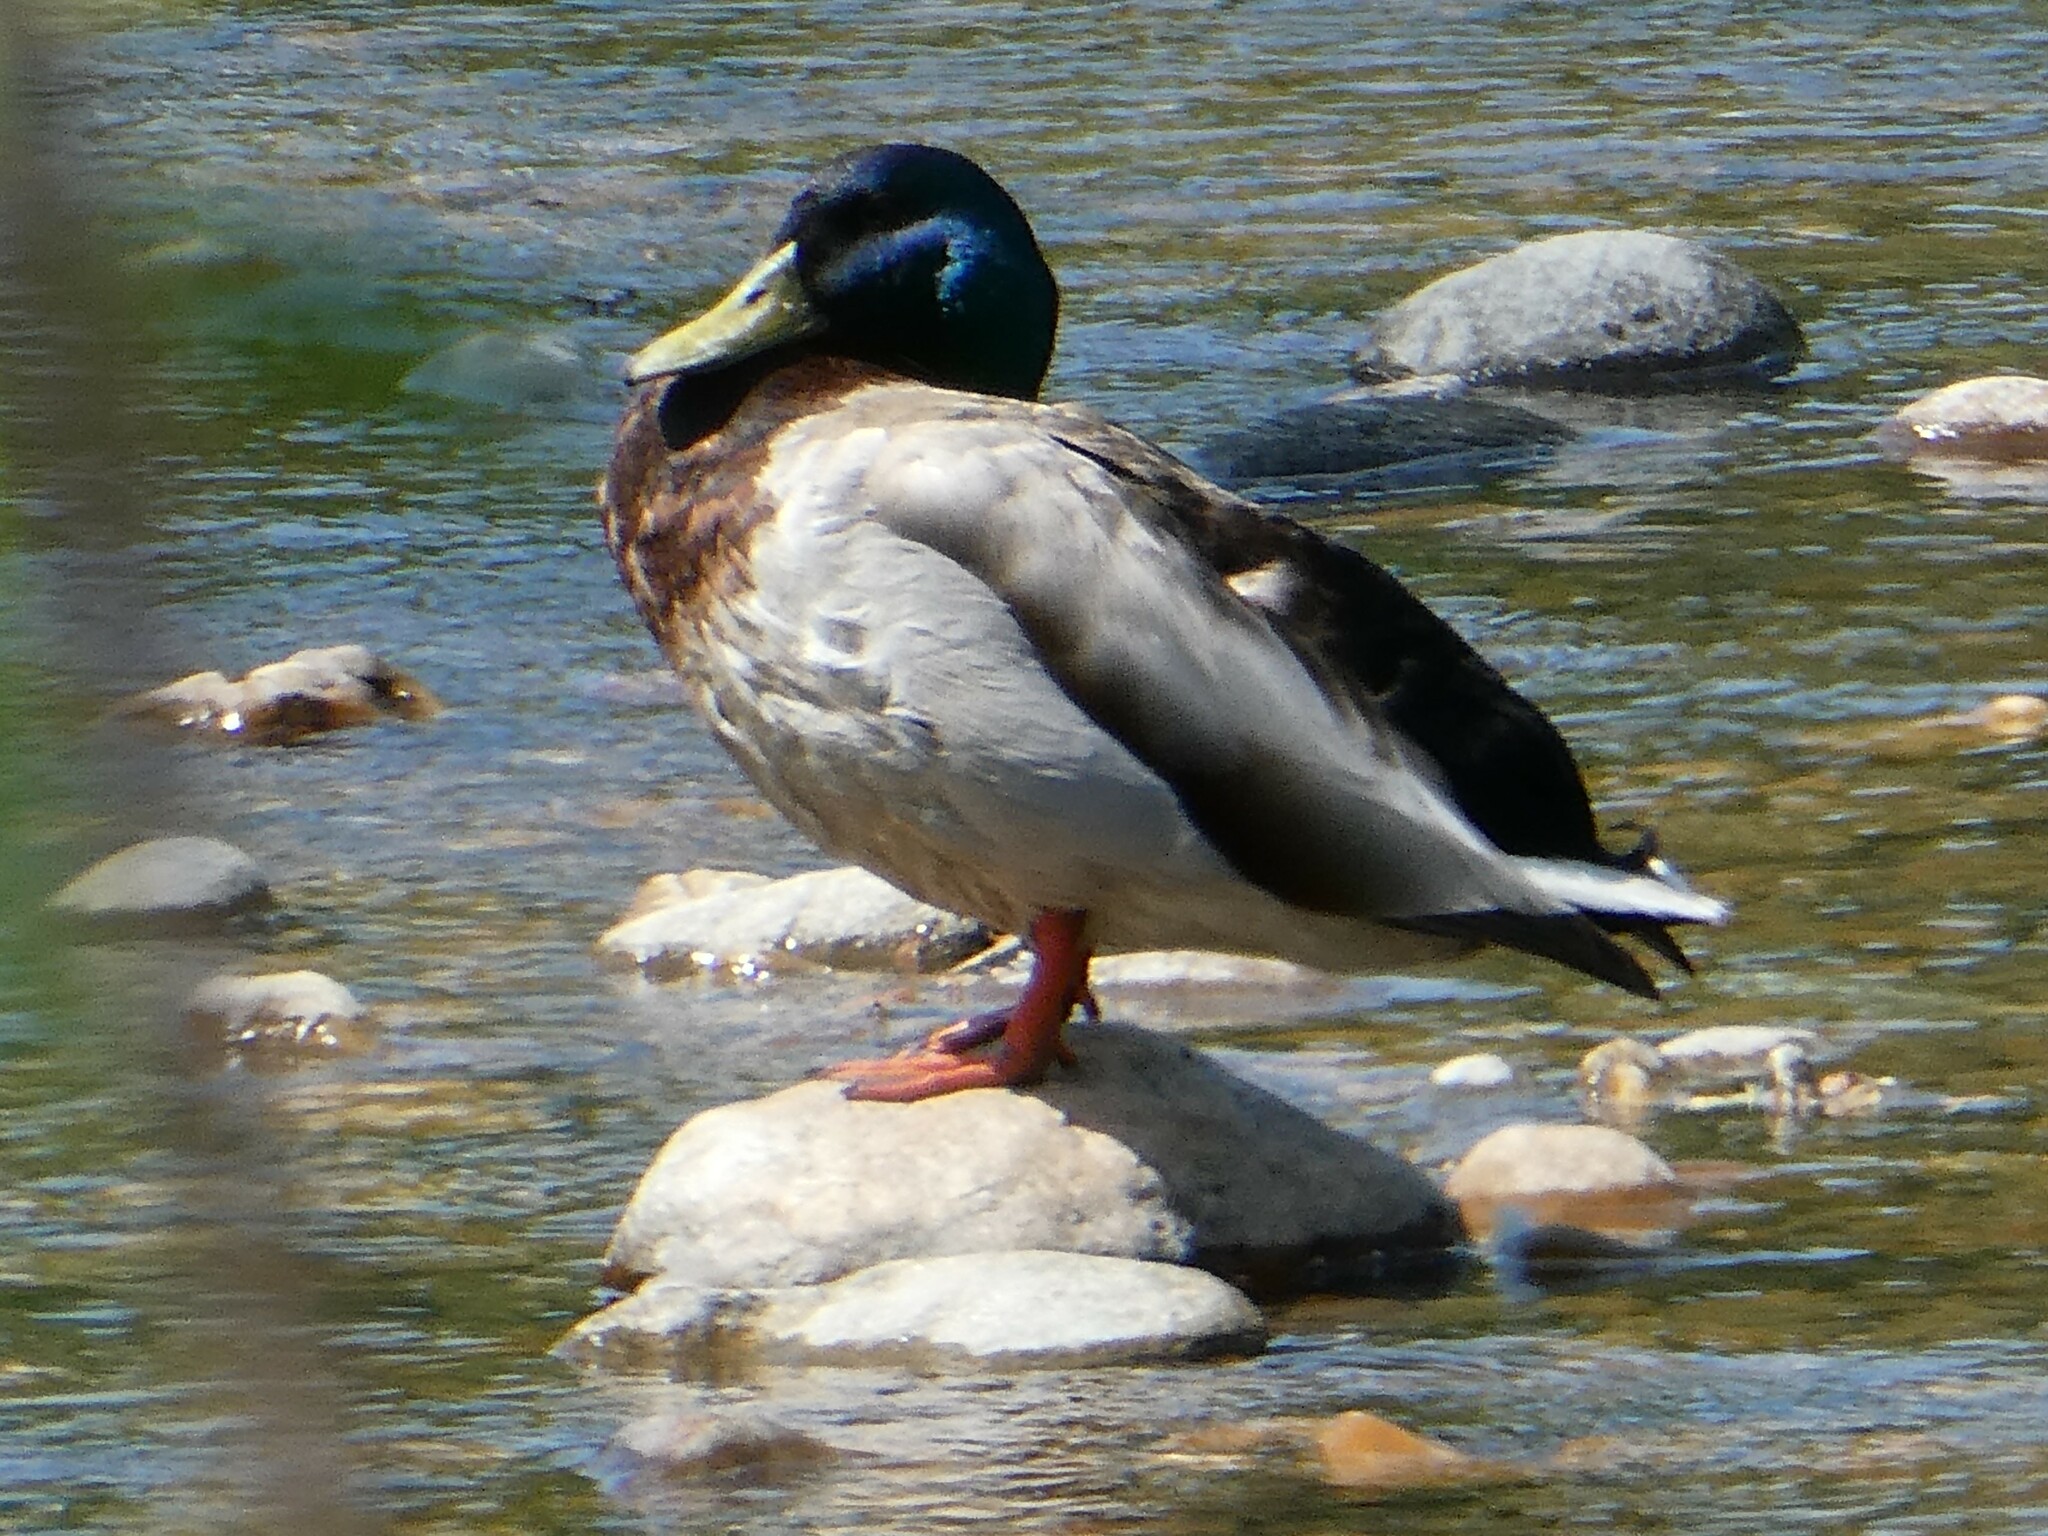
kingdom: Animalia
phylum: Chordata
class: Aves
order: Anseriformes
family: Anatidae
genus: Anas
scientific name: Anas platyrhynchos
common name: Mallard
